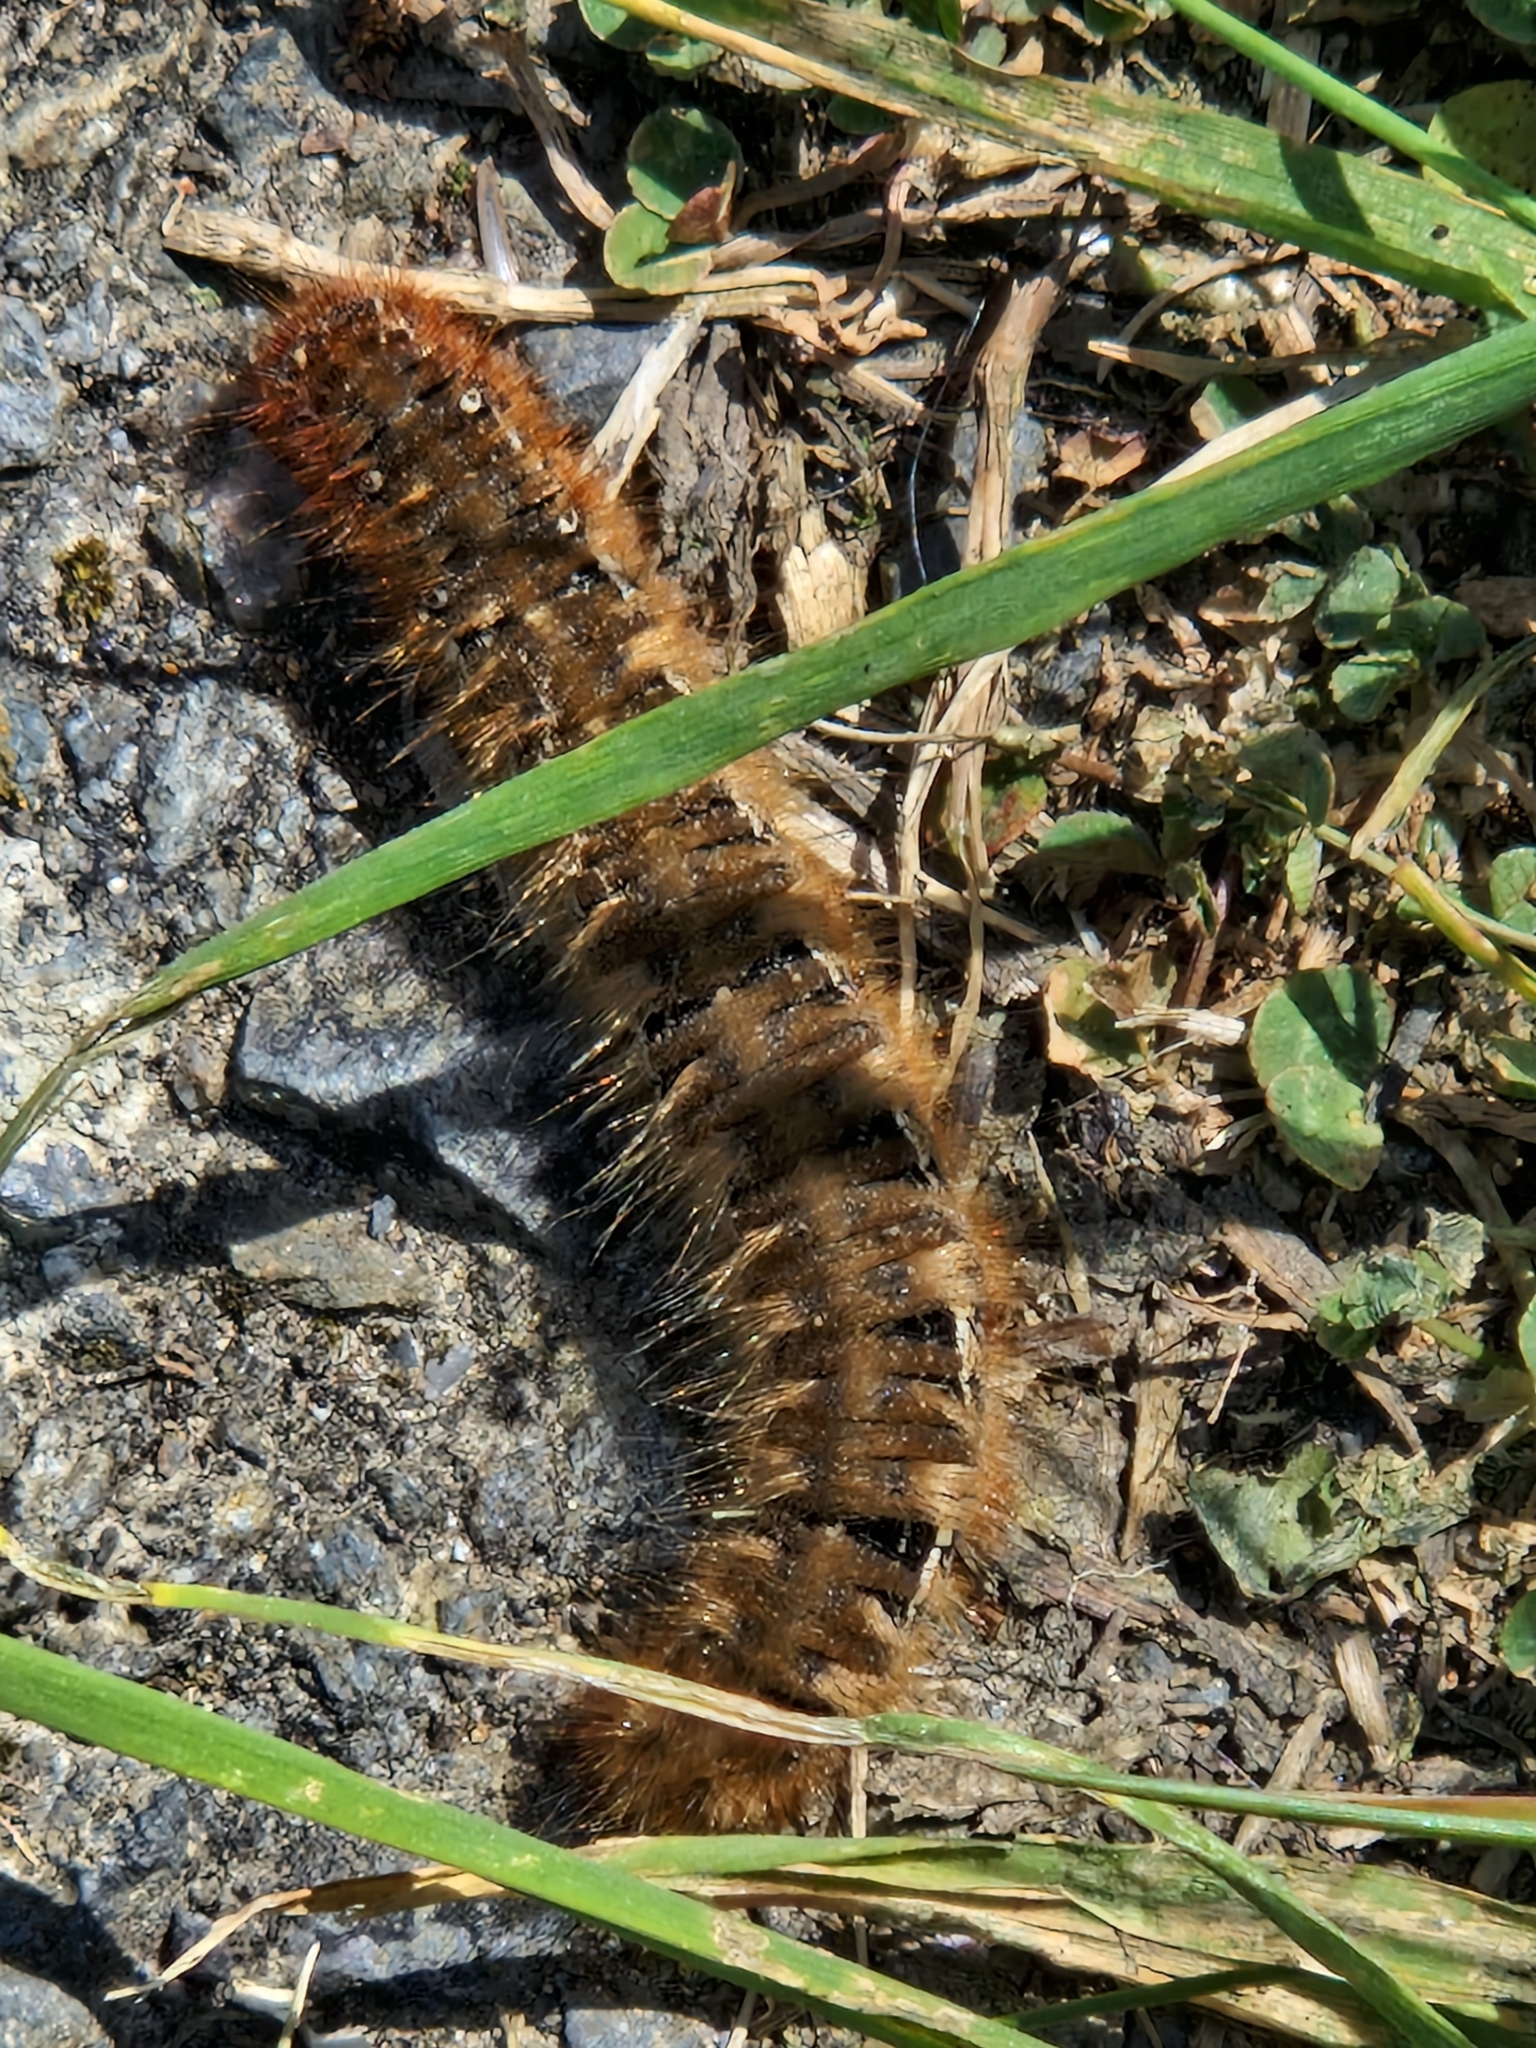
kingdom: Animalia
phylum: Arthropoda
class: Insecta
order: Lepidoptera
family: Lasiocampidae
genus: Lasiocampa
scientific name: Lasiocampa quercus
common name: Oak eggar
